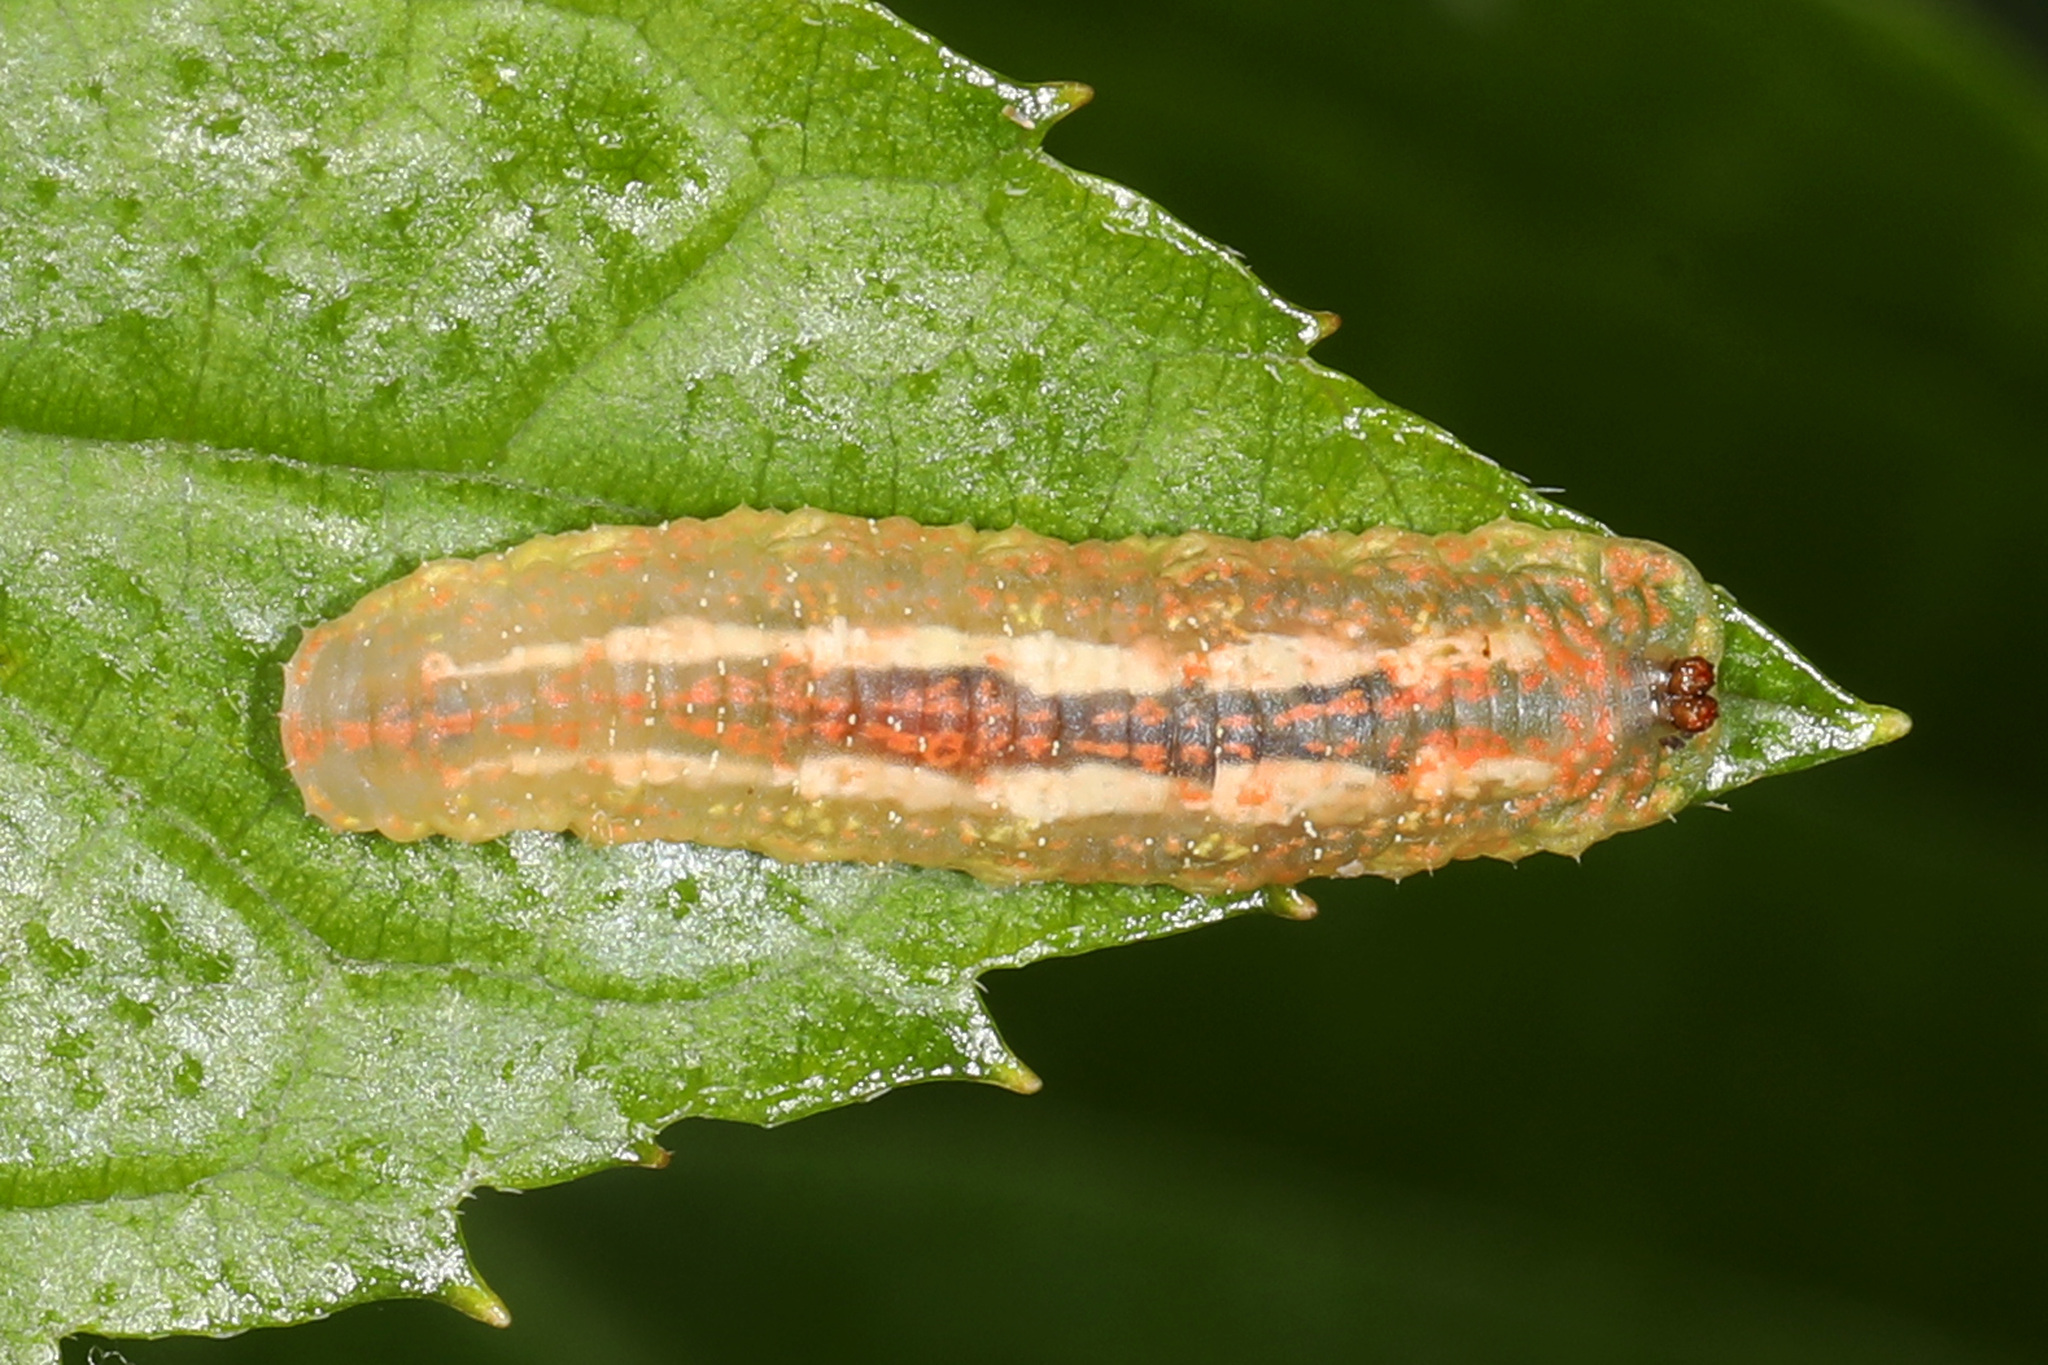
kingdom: Animalia
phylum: Arthropoda
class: Insecta
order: Diptera
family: Syrphidae
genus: Syrphus
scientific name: Syrphus
